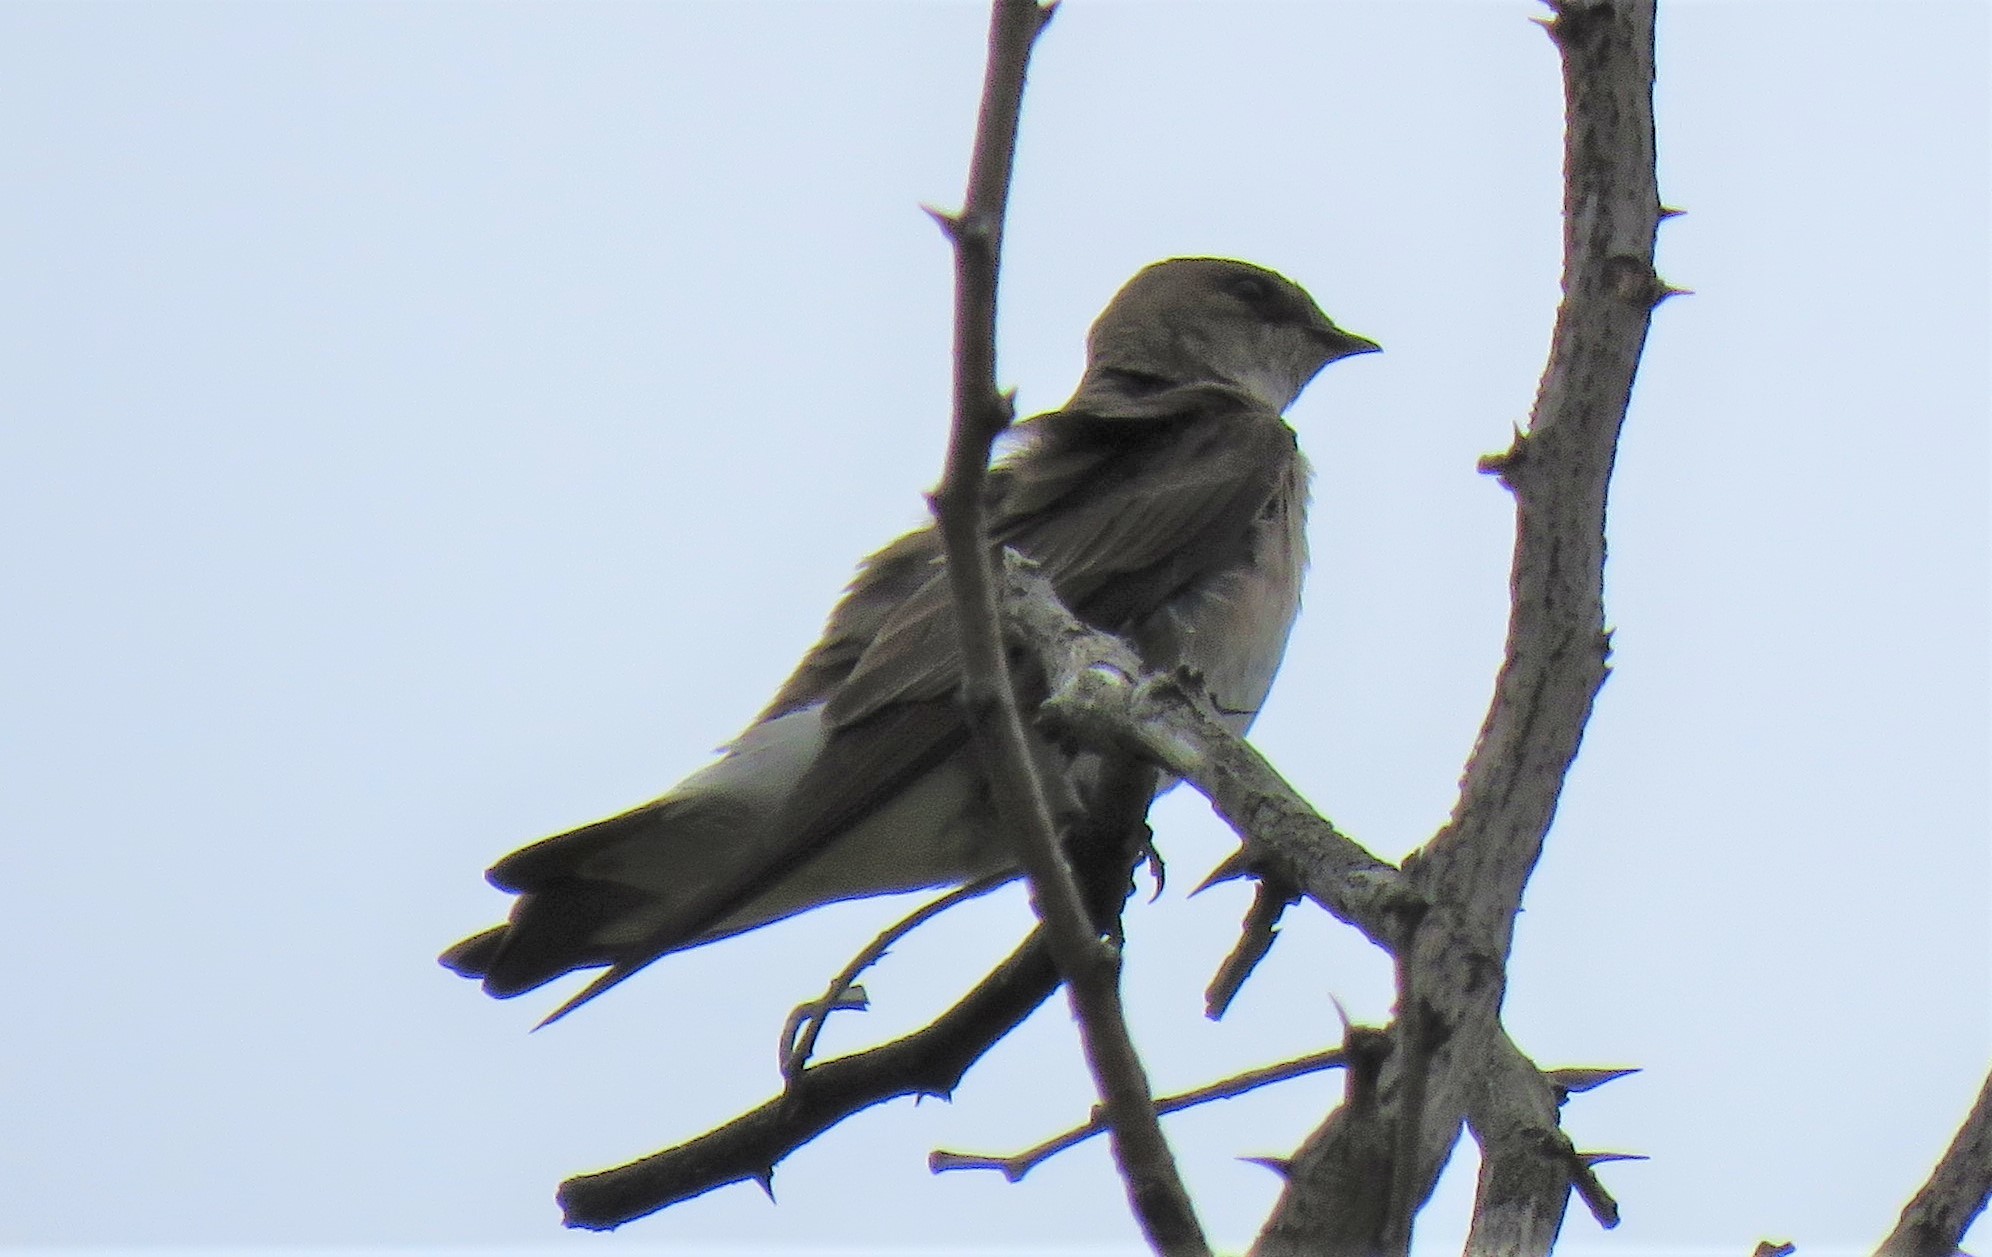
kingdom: Animalia
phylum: Chordata
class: Aves
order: Passeriformes
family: Hirundinidae
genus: Stelgidopteryx
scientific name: Stelgidopteryx serripennis
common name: Northern rough-winged swallow
